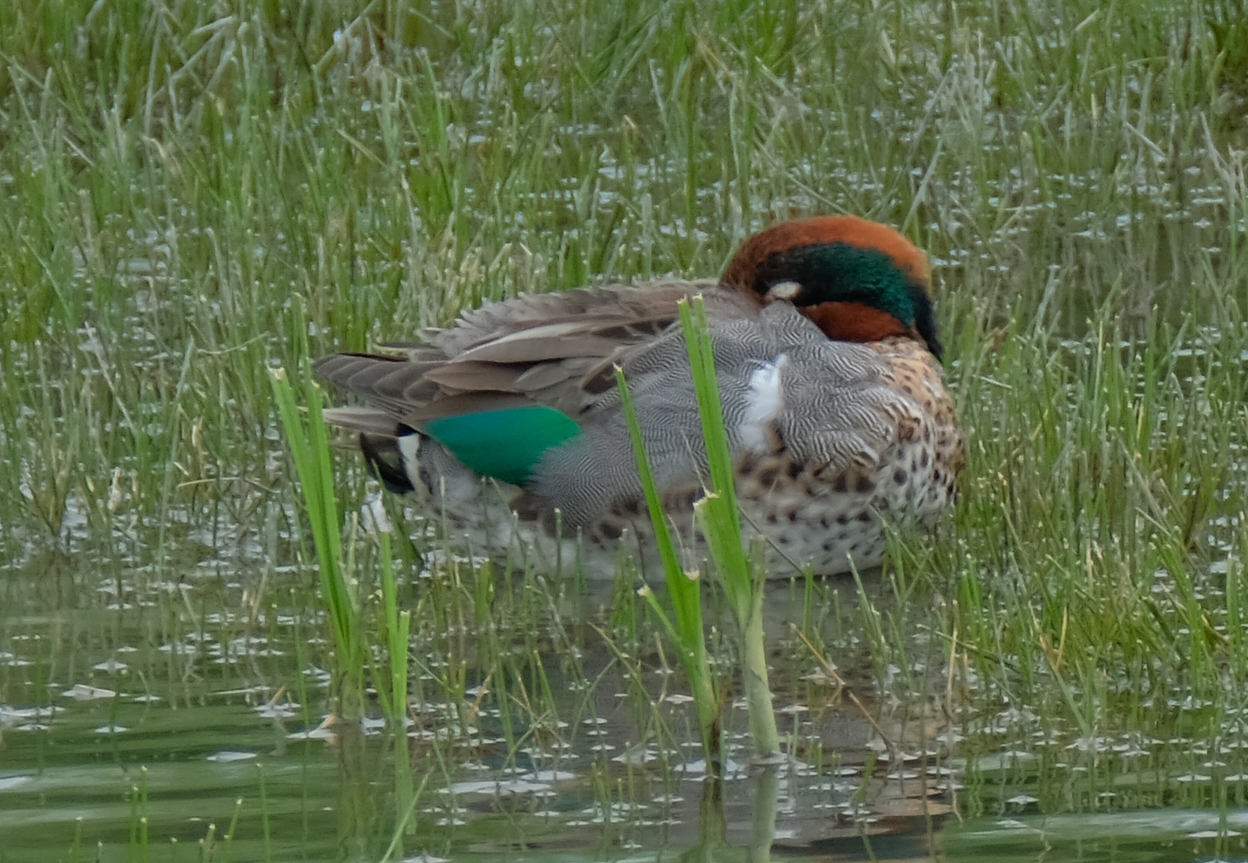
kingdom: Animalia
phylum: Chordata
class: Aves
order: Anseriformes
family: Anatidae
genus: Anas
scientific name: Anas crecca
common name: Eurasian teal
